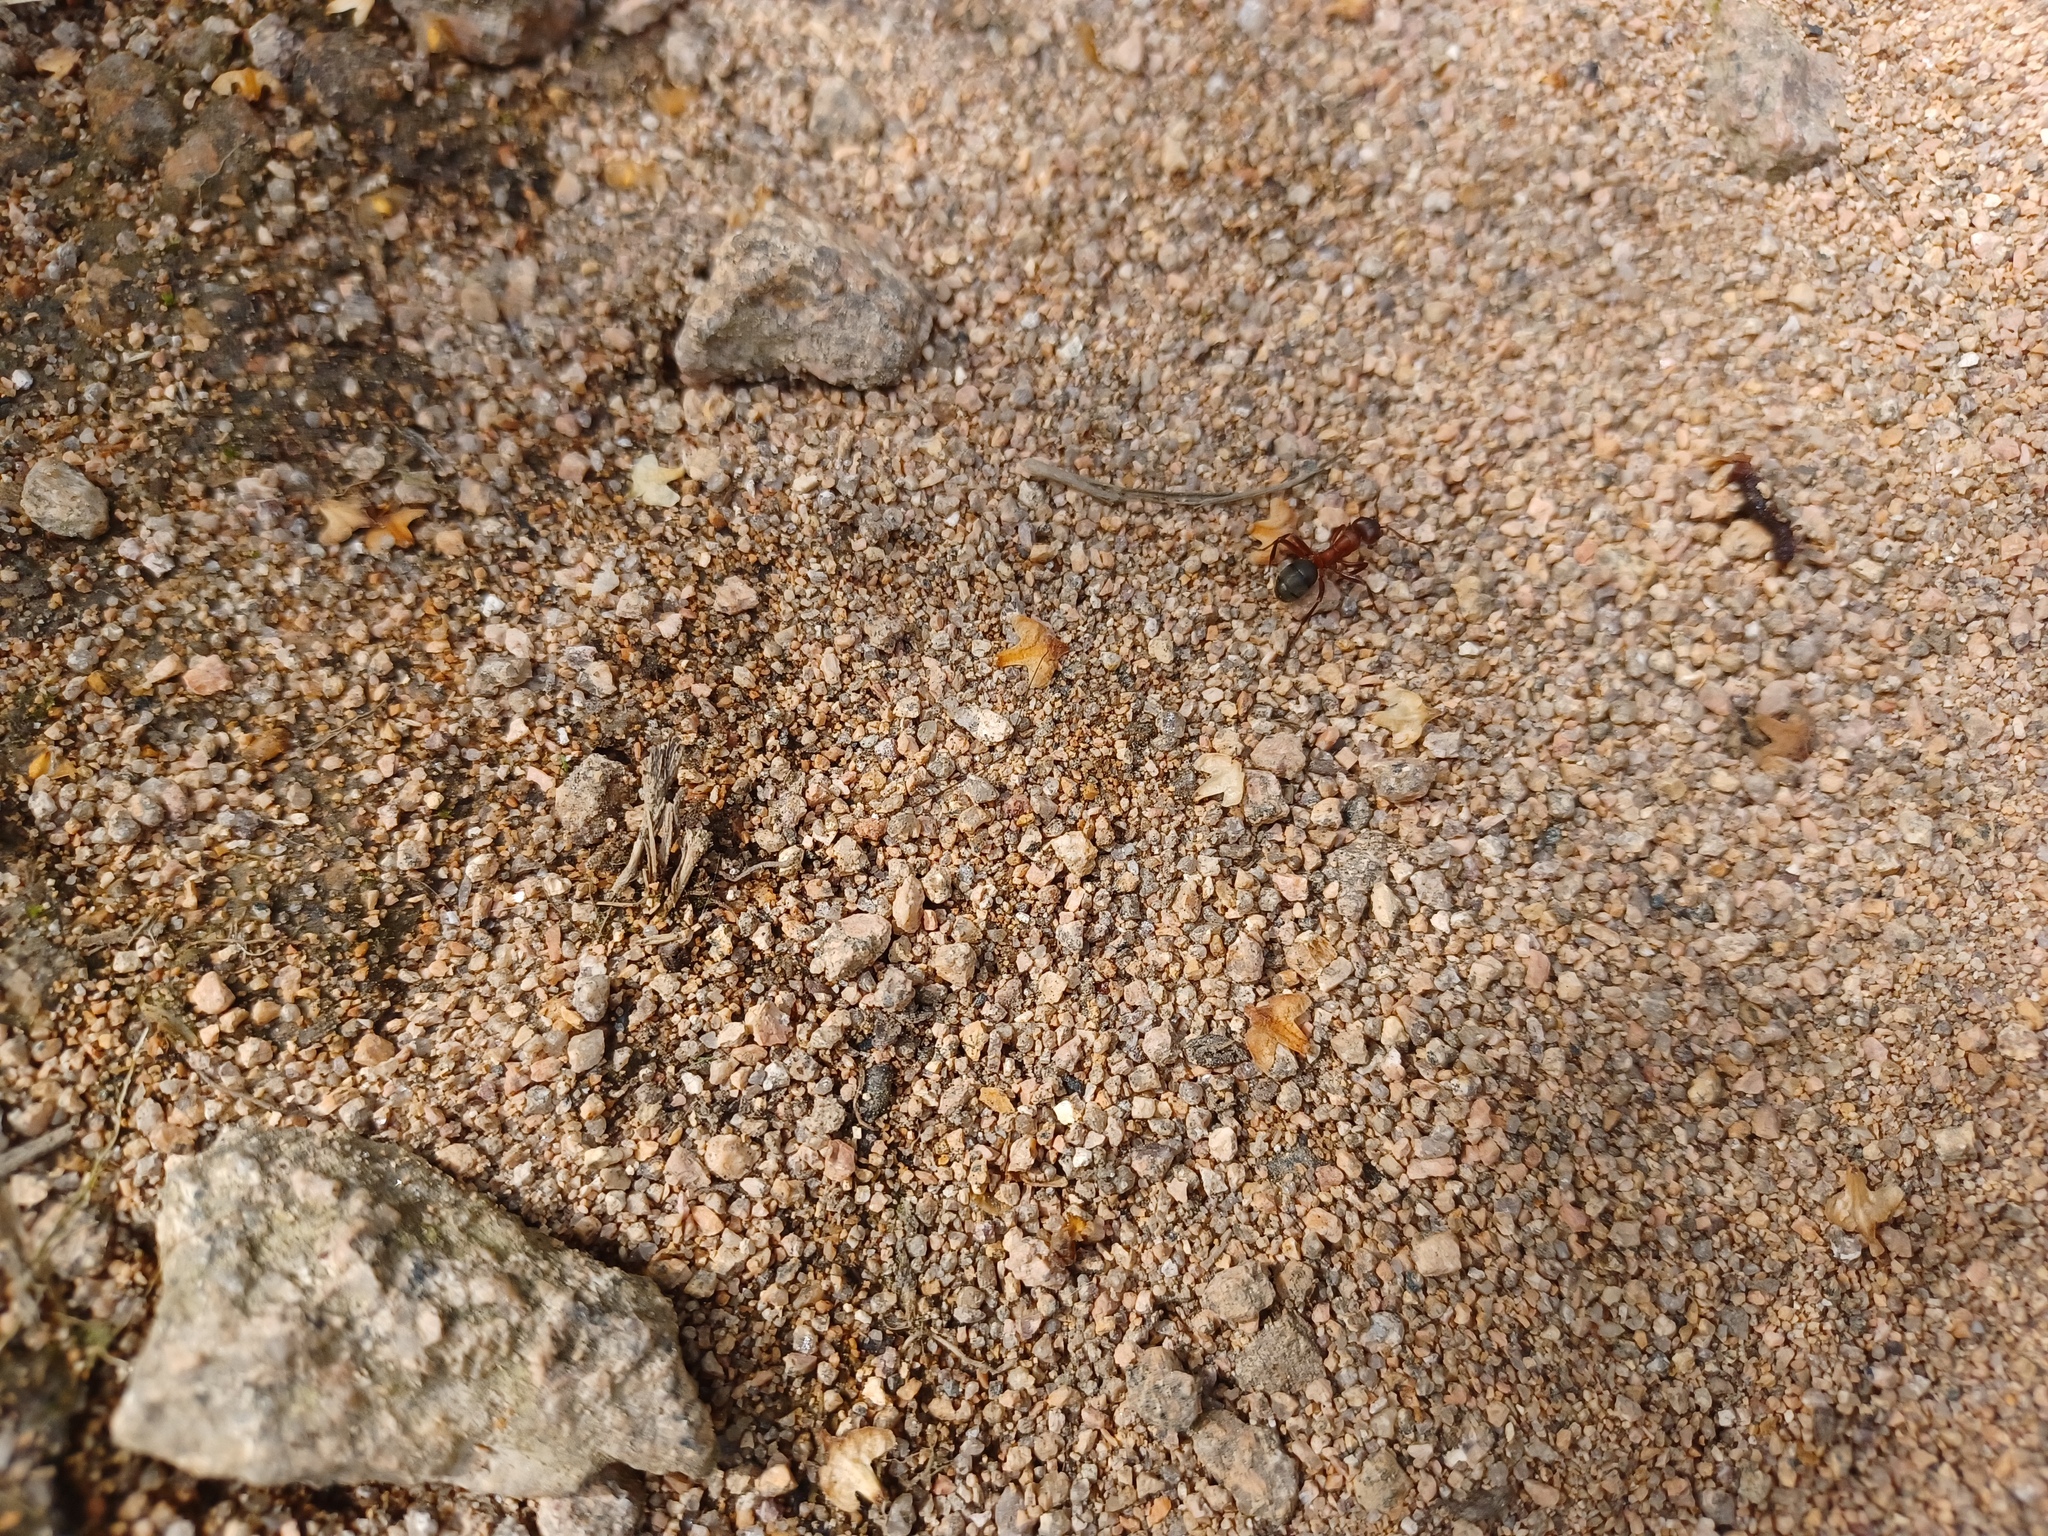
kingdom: Animalia
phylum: Arthropoda
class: Insecta
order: Hymenoptera
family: Formicidae
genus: Formica
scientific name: Formica sanguinea
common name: Blood-red ant
